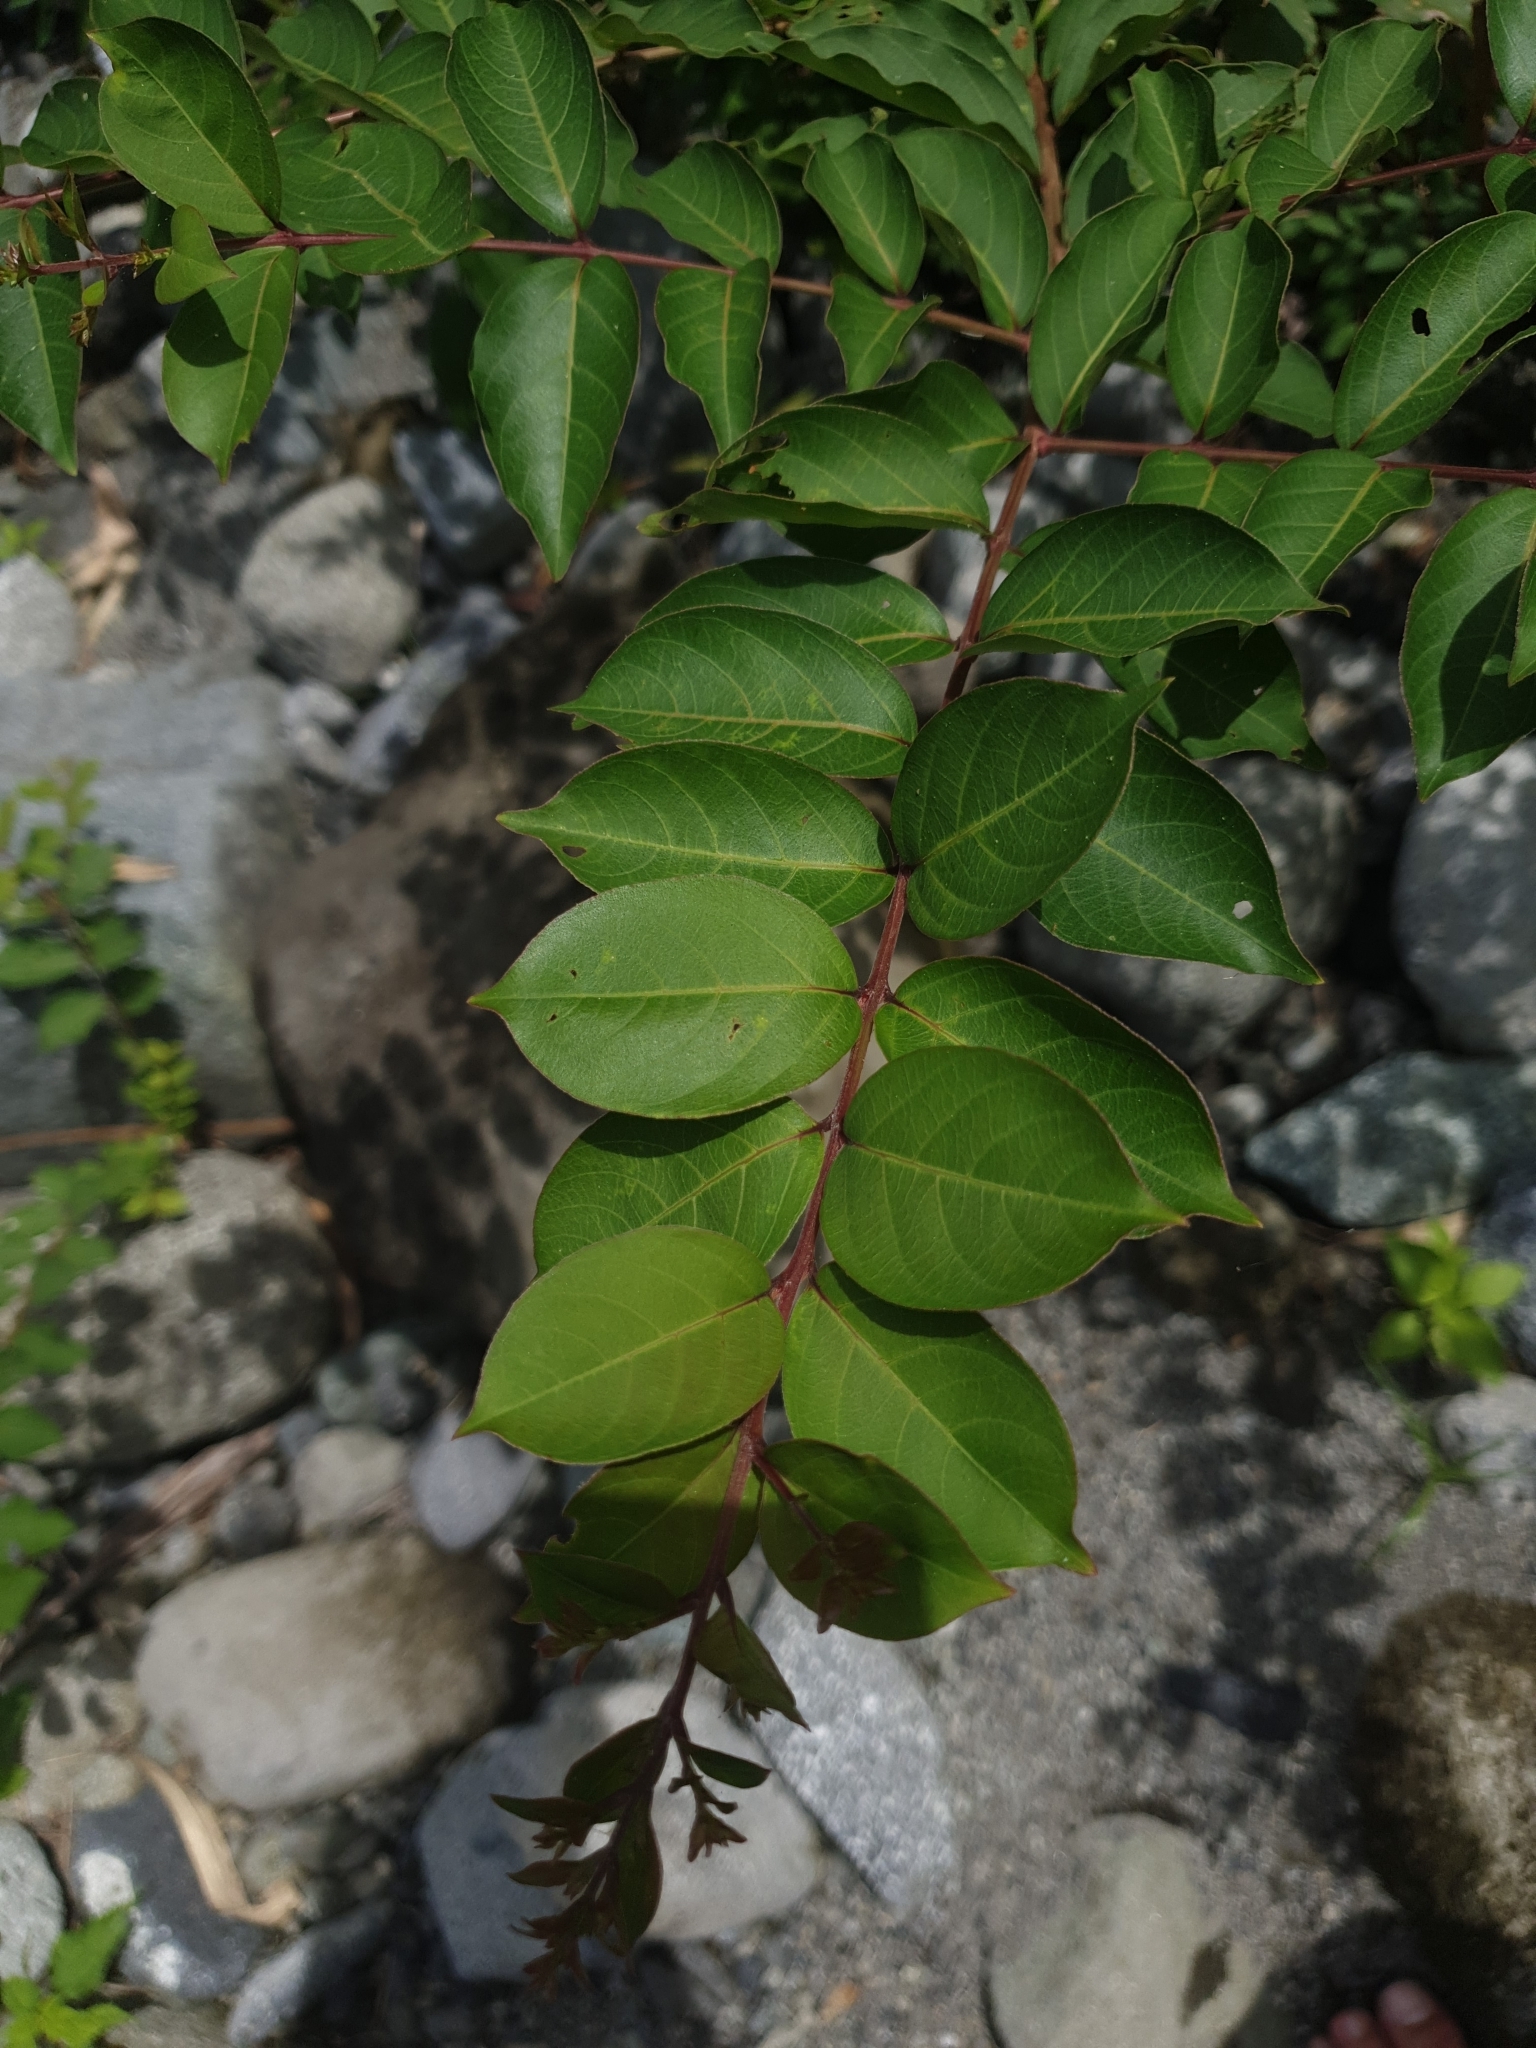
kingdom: Plantae
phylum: Tracheophyta
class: Magnoliopsida
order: Myrtales
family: Lythraceae
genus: Lagerstroemia
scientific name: Lagerstroemia subcostata
